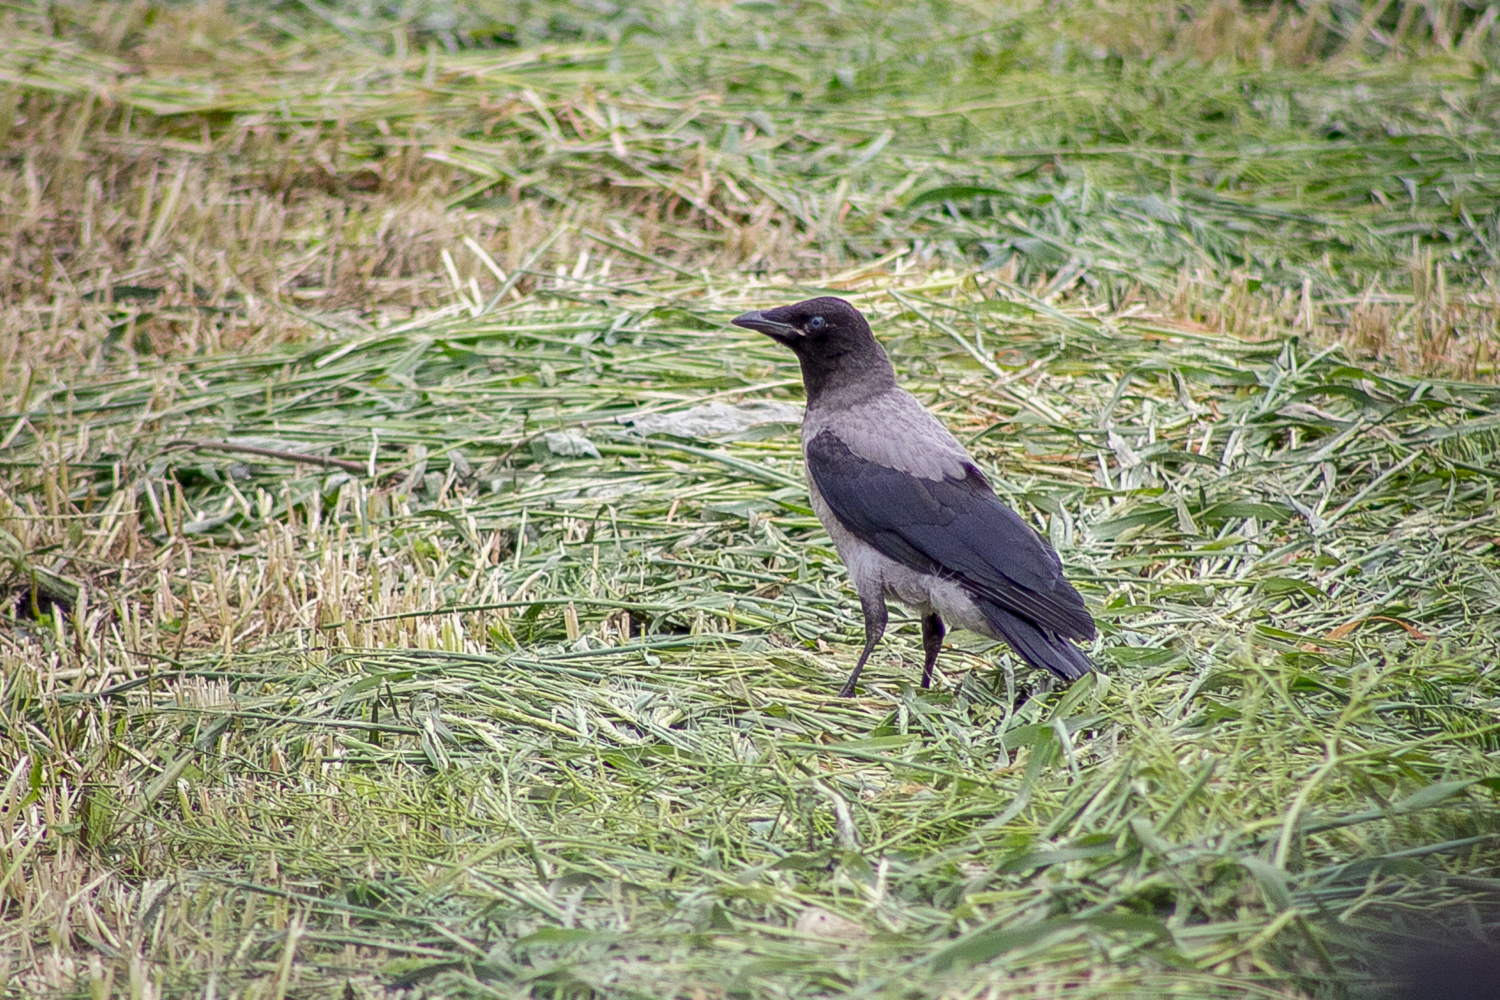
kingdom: Animalia
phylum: Chordata
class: Aves
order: Passeriformes
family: Corvidae
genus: Corvus
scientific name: Corvus cornix
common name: Hooded crow
